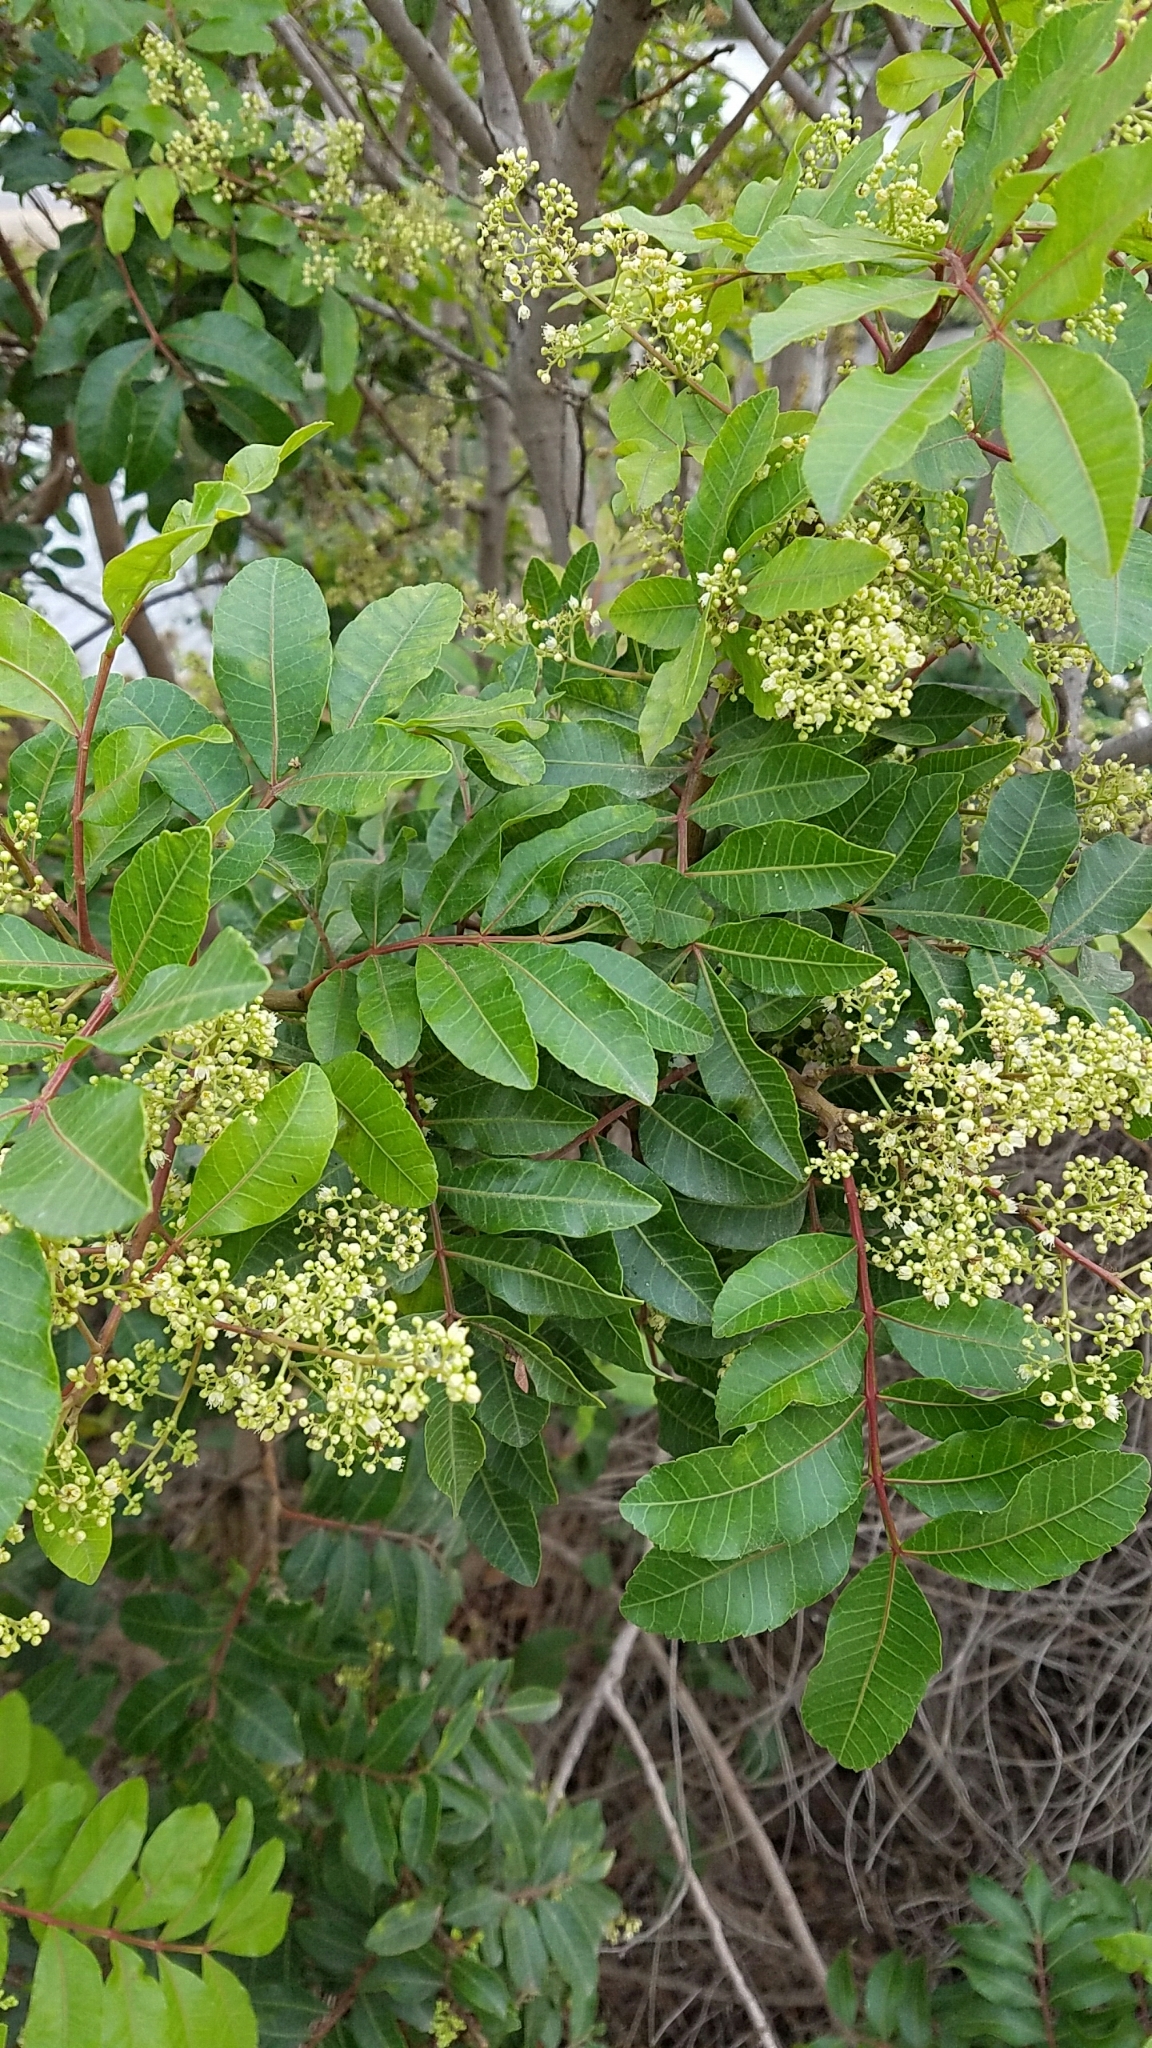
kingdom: Plantae
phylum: Tracheophyta
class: Magnoliopsida
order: Sapindales
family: Anacardiaceae
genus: Schinus
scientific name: Schinus terebinthifolia
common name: Brazilian peppertree
